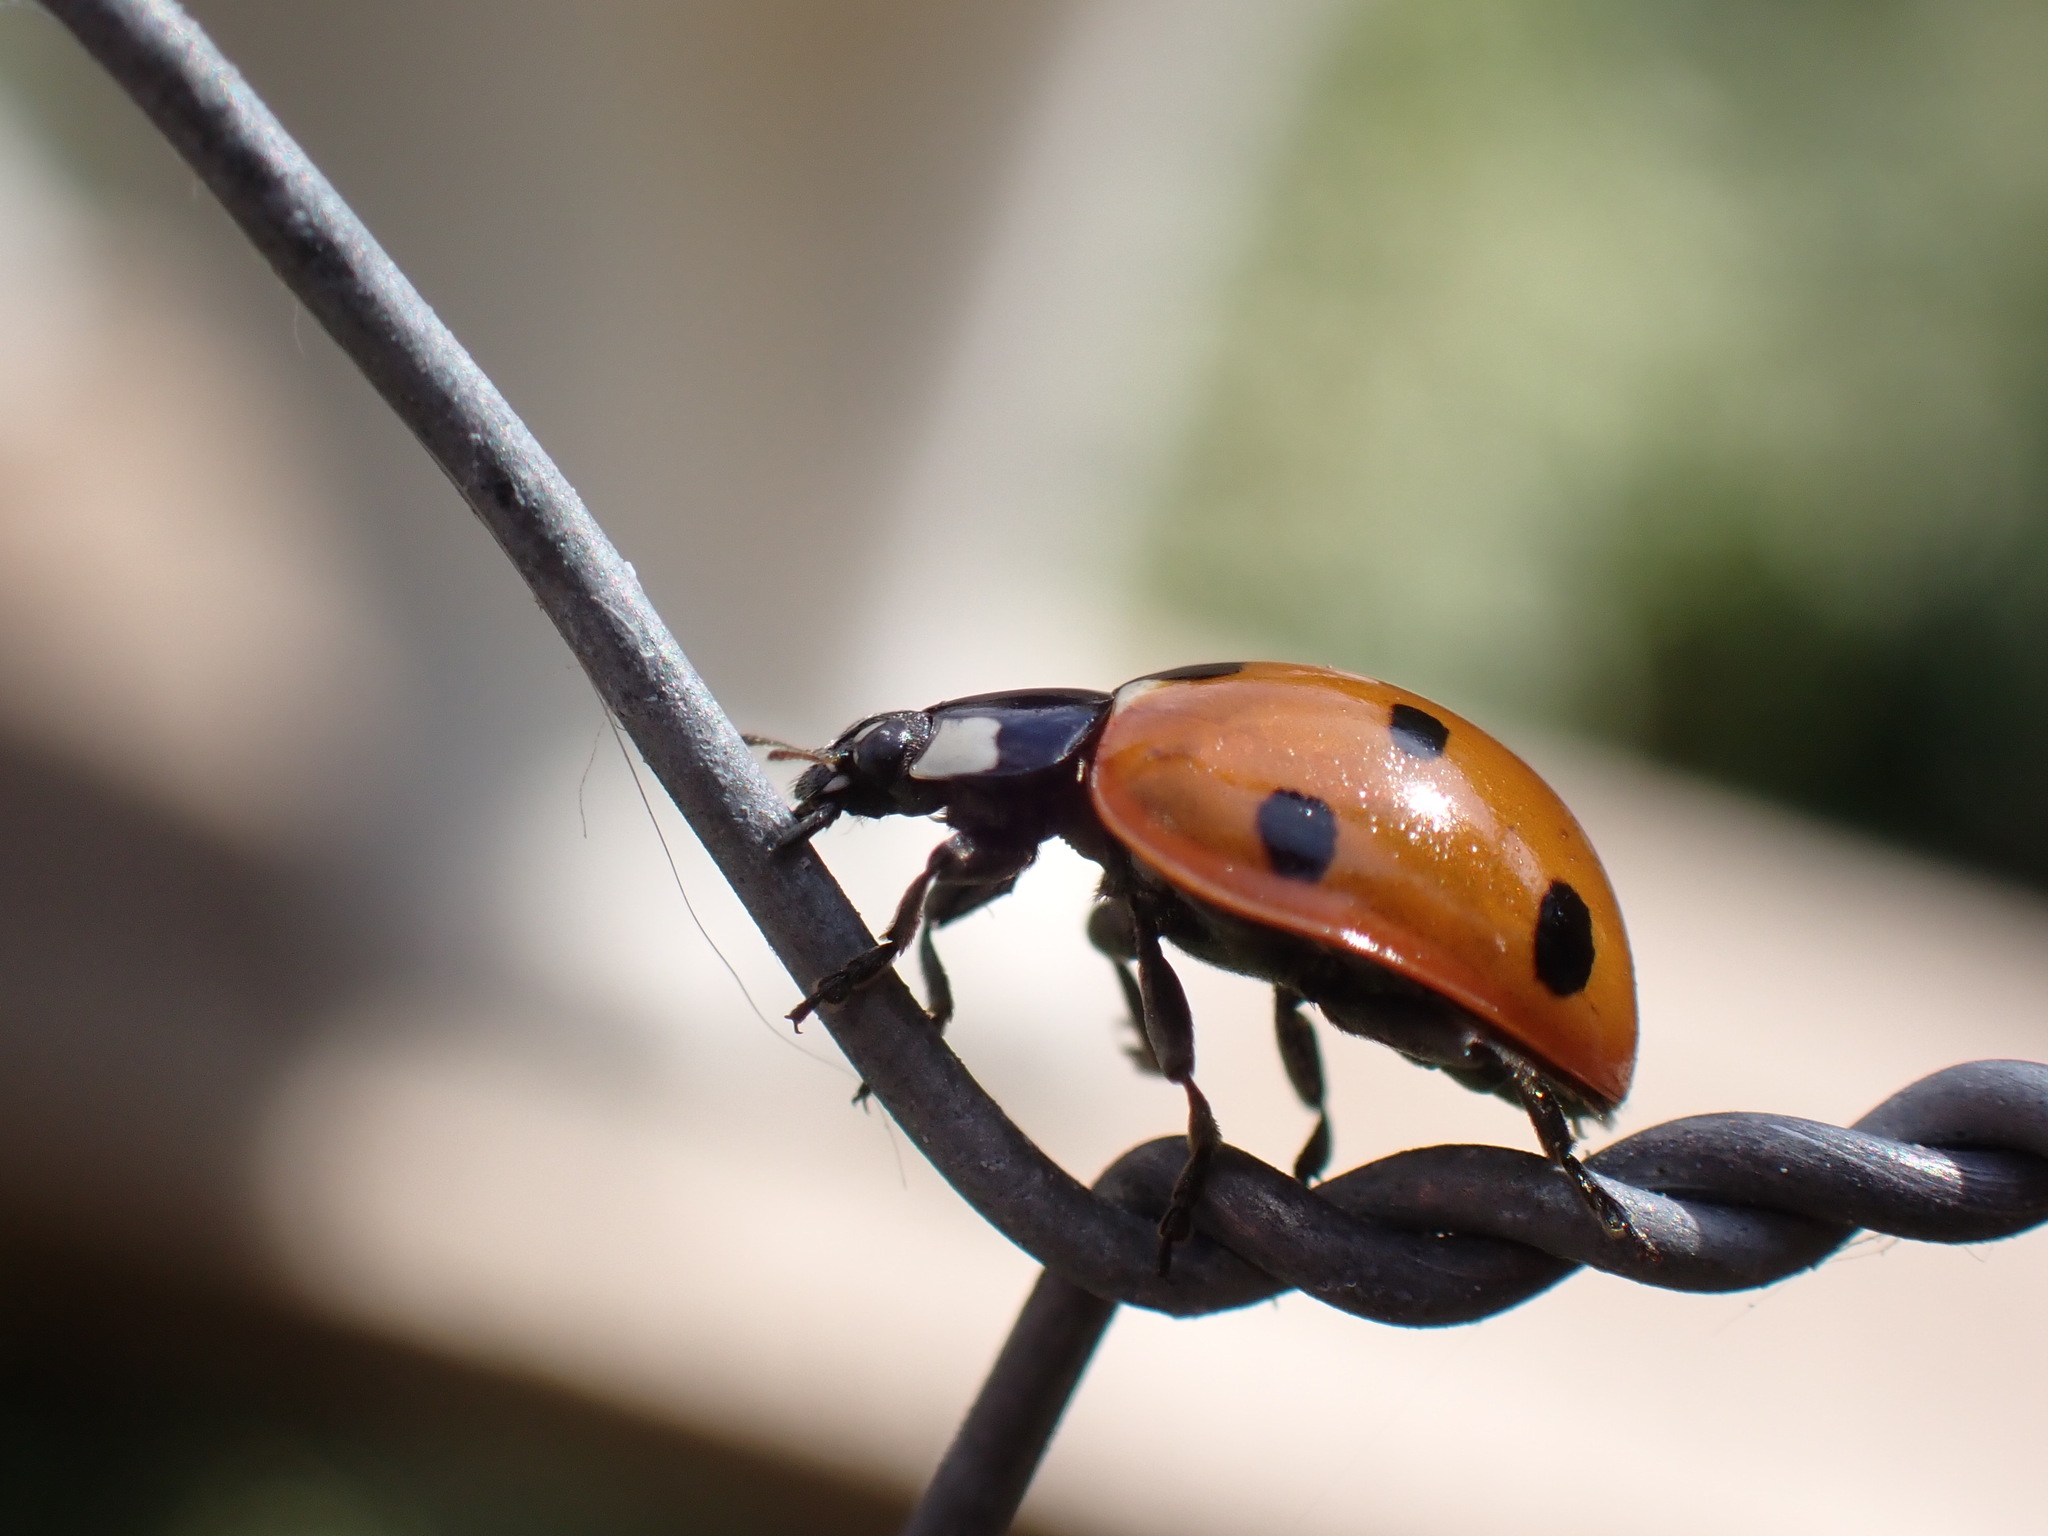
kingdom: Animalia
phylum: Arthropoda
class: Insecta
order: Coleoptera
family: Coccinellidae
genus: Coccinella
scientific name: Coccinella septempunctata
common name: Sevenspotted lady beetle
